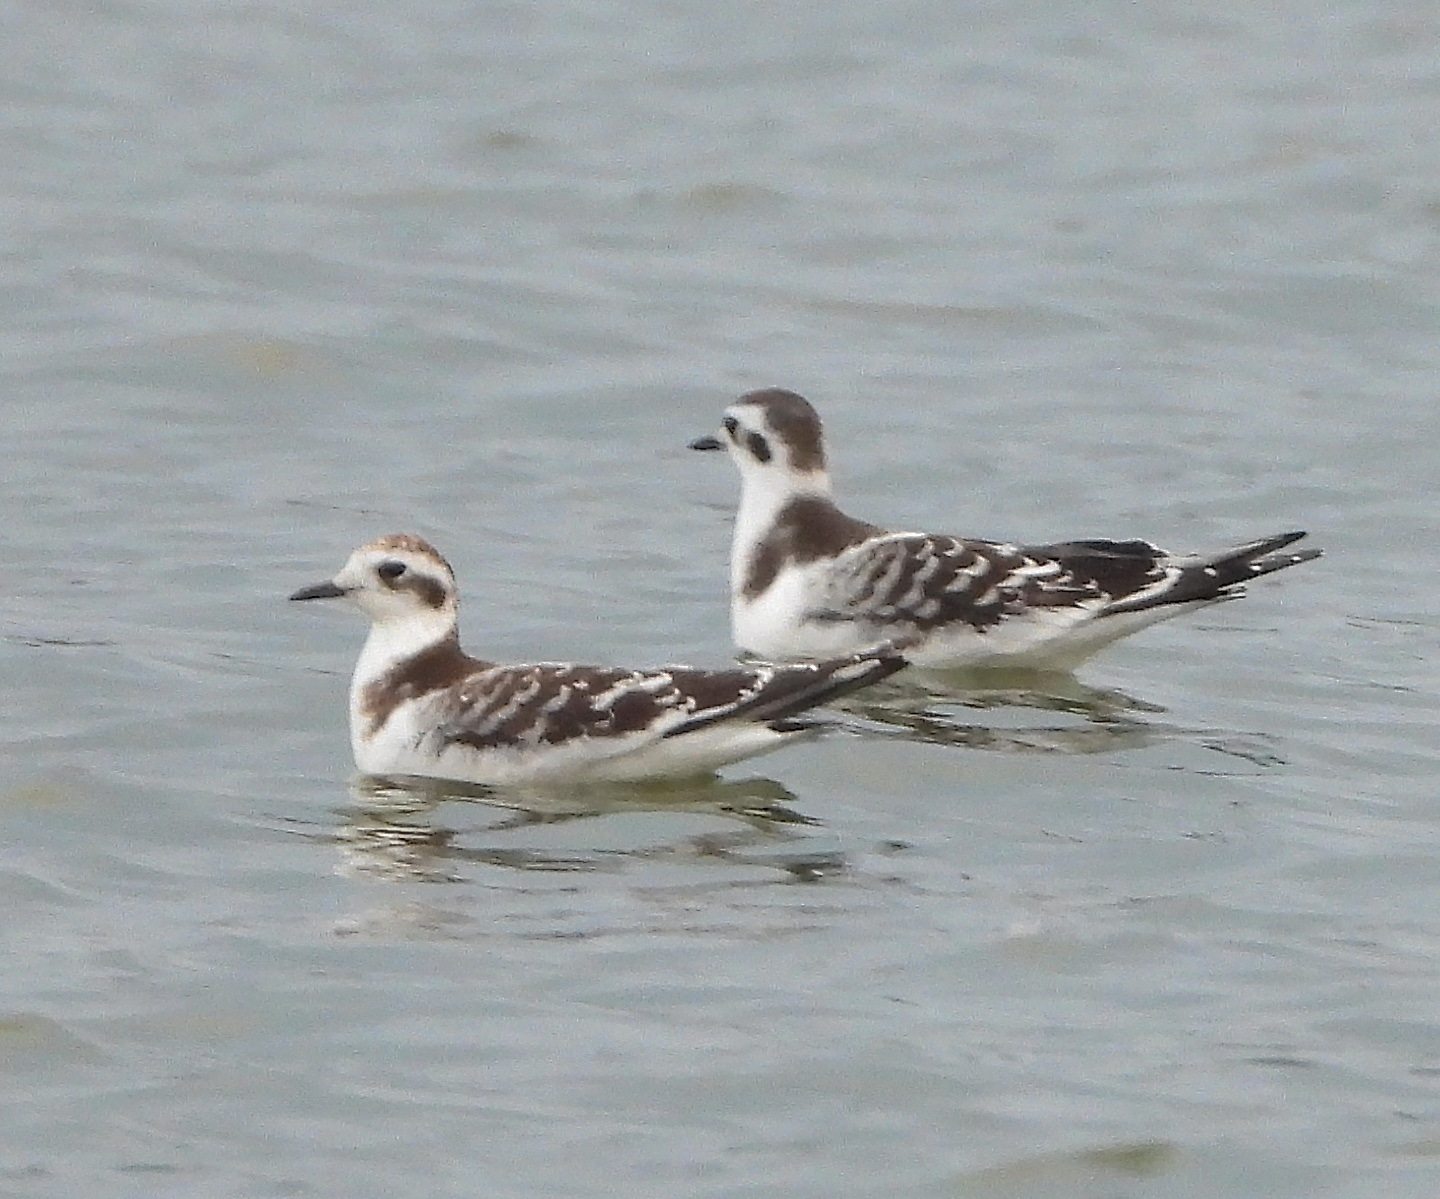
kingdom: Animalia
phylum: Chordata
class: Aves
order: Charadriiformes
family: Laridae
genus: Hydrocoloeus
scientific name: Hydrocoloeus minutus
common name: Little gull
